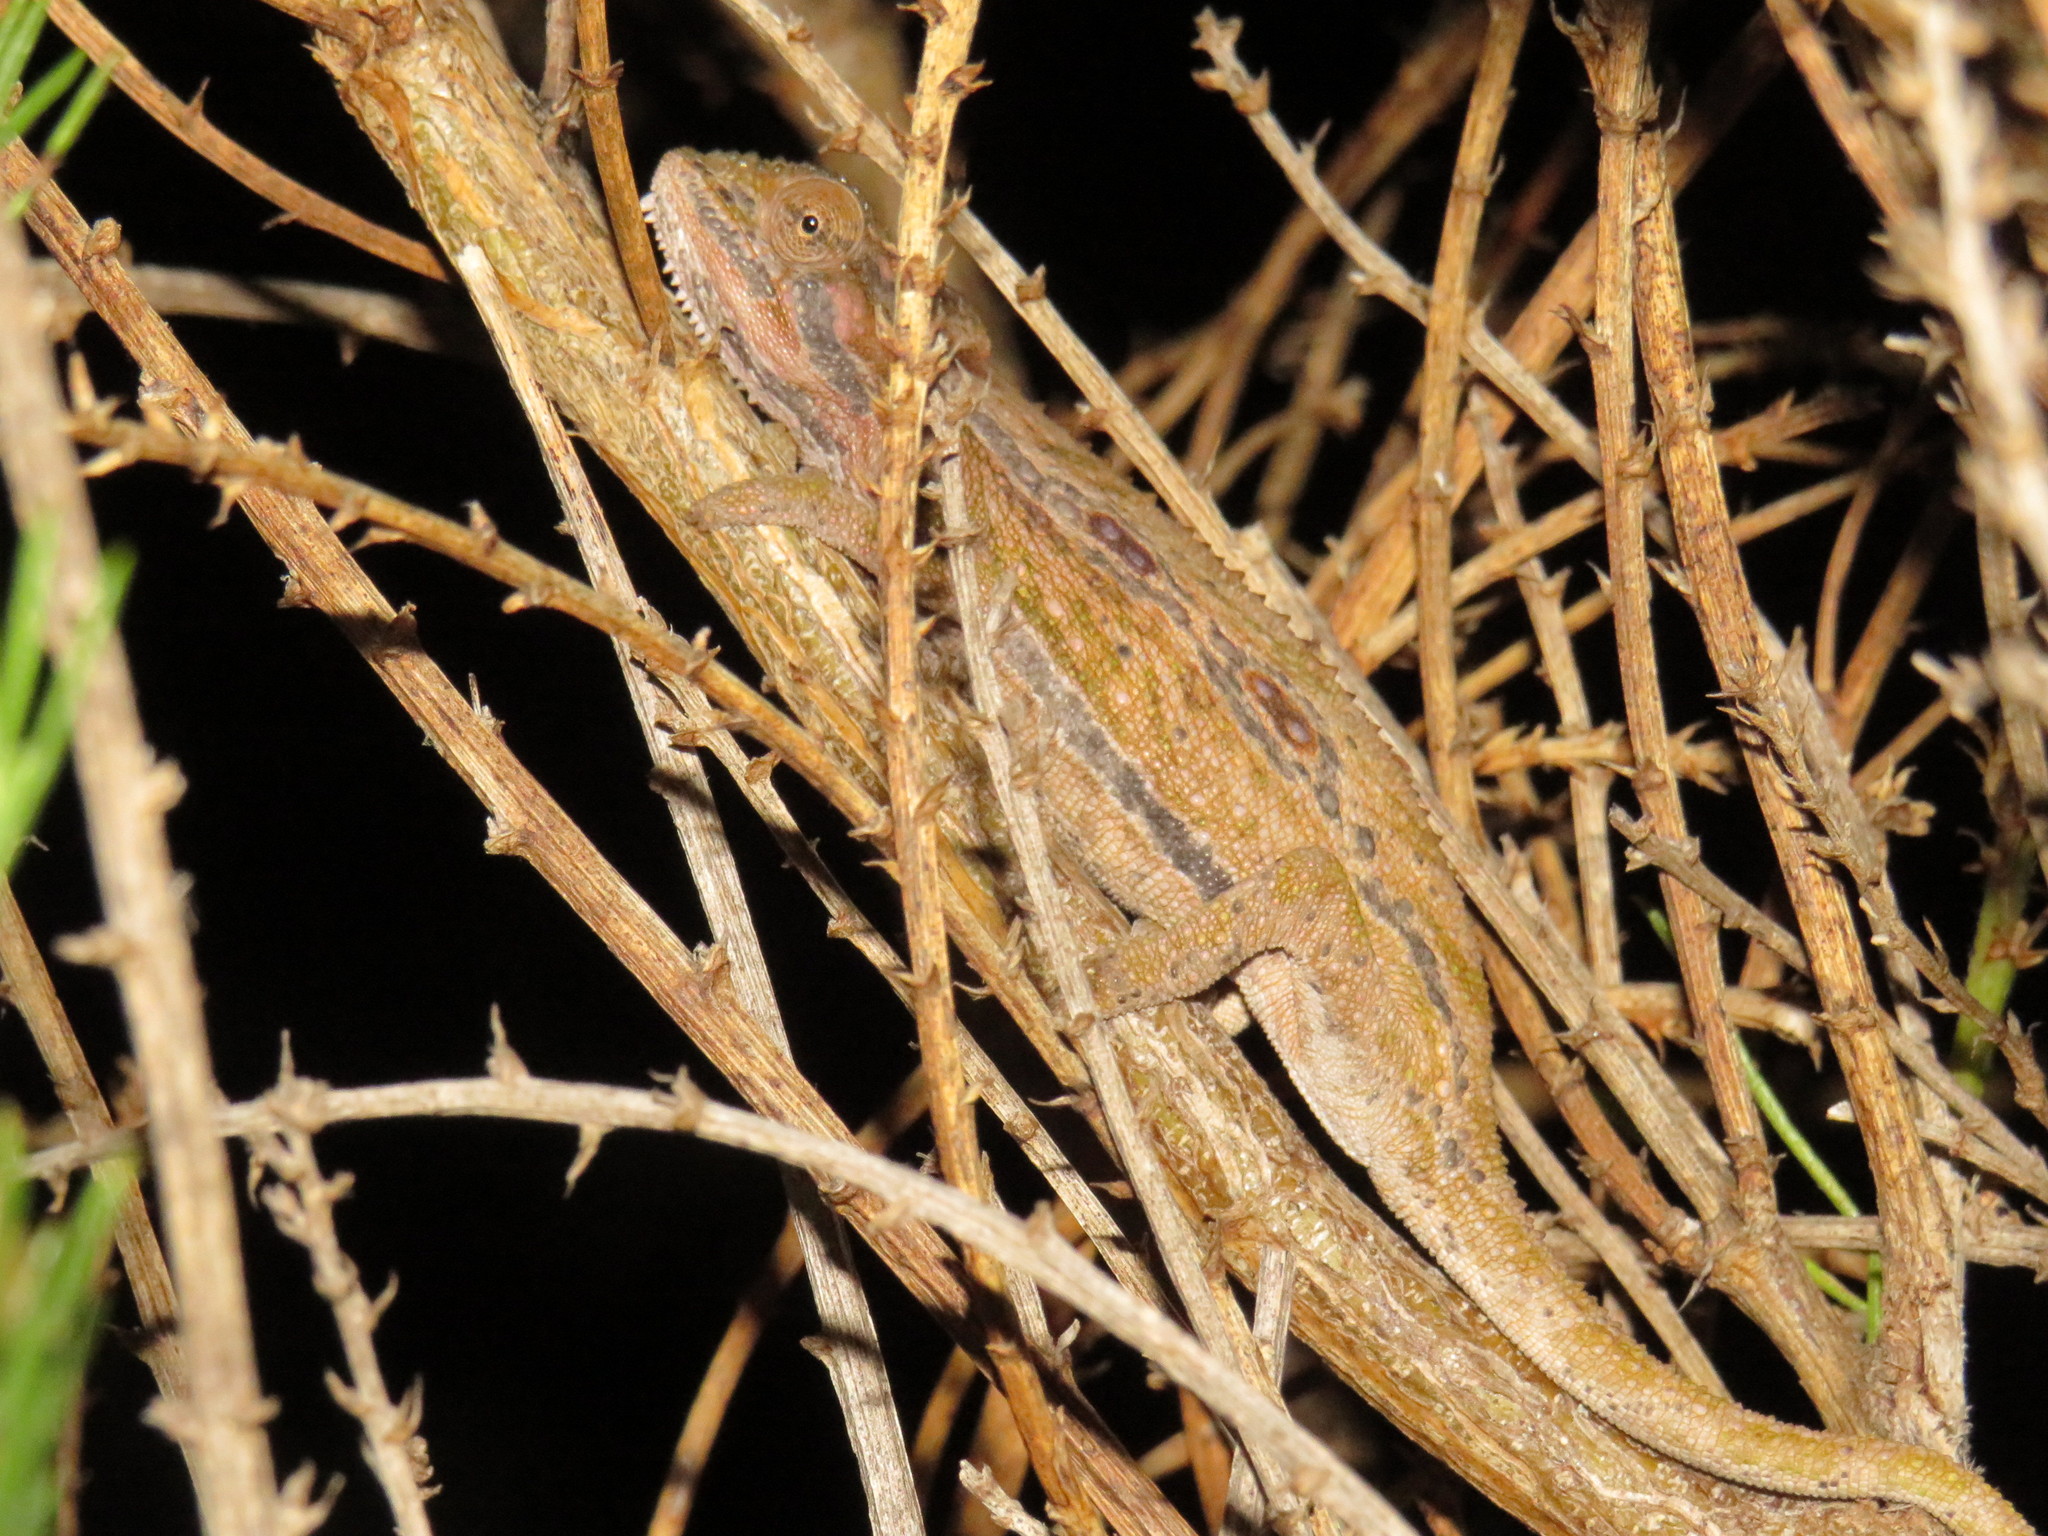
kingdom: Animalia
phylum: Chordata
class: Squamata
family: Chamaeleonidae
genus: Bradypodion
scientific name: Bradypodion pumilum
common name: Cape dwarf chameleon
